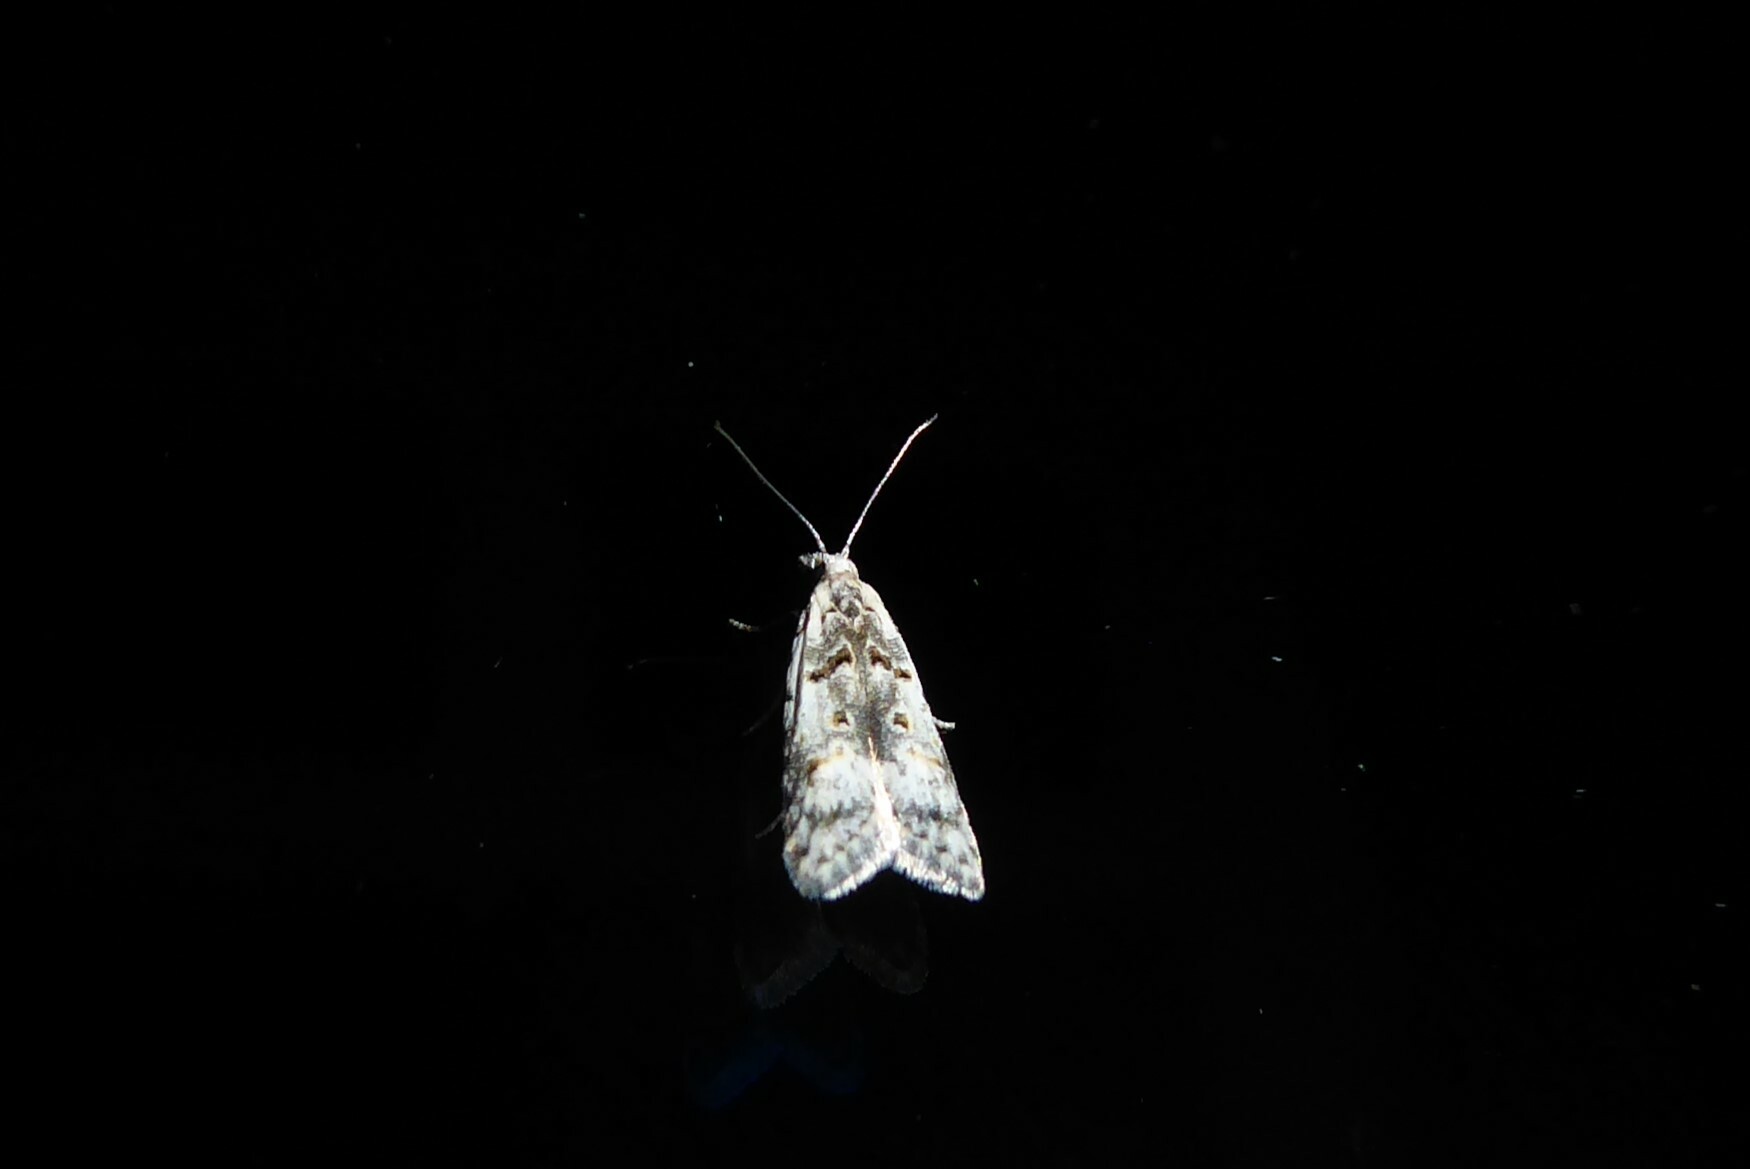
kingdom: Animalia
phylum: Arthropoda
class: Insecta
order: Lepidoptera
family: Carposinidae
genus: Carposina
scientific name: Carposina
